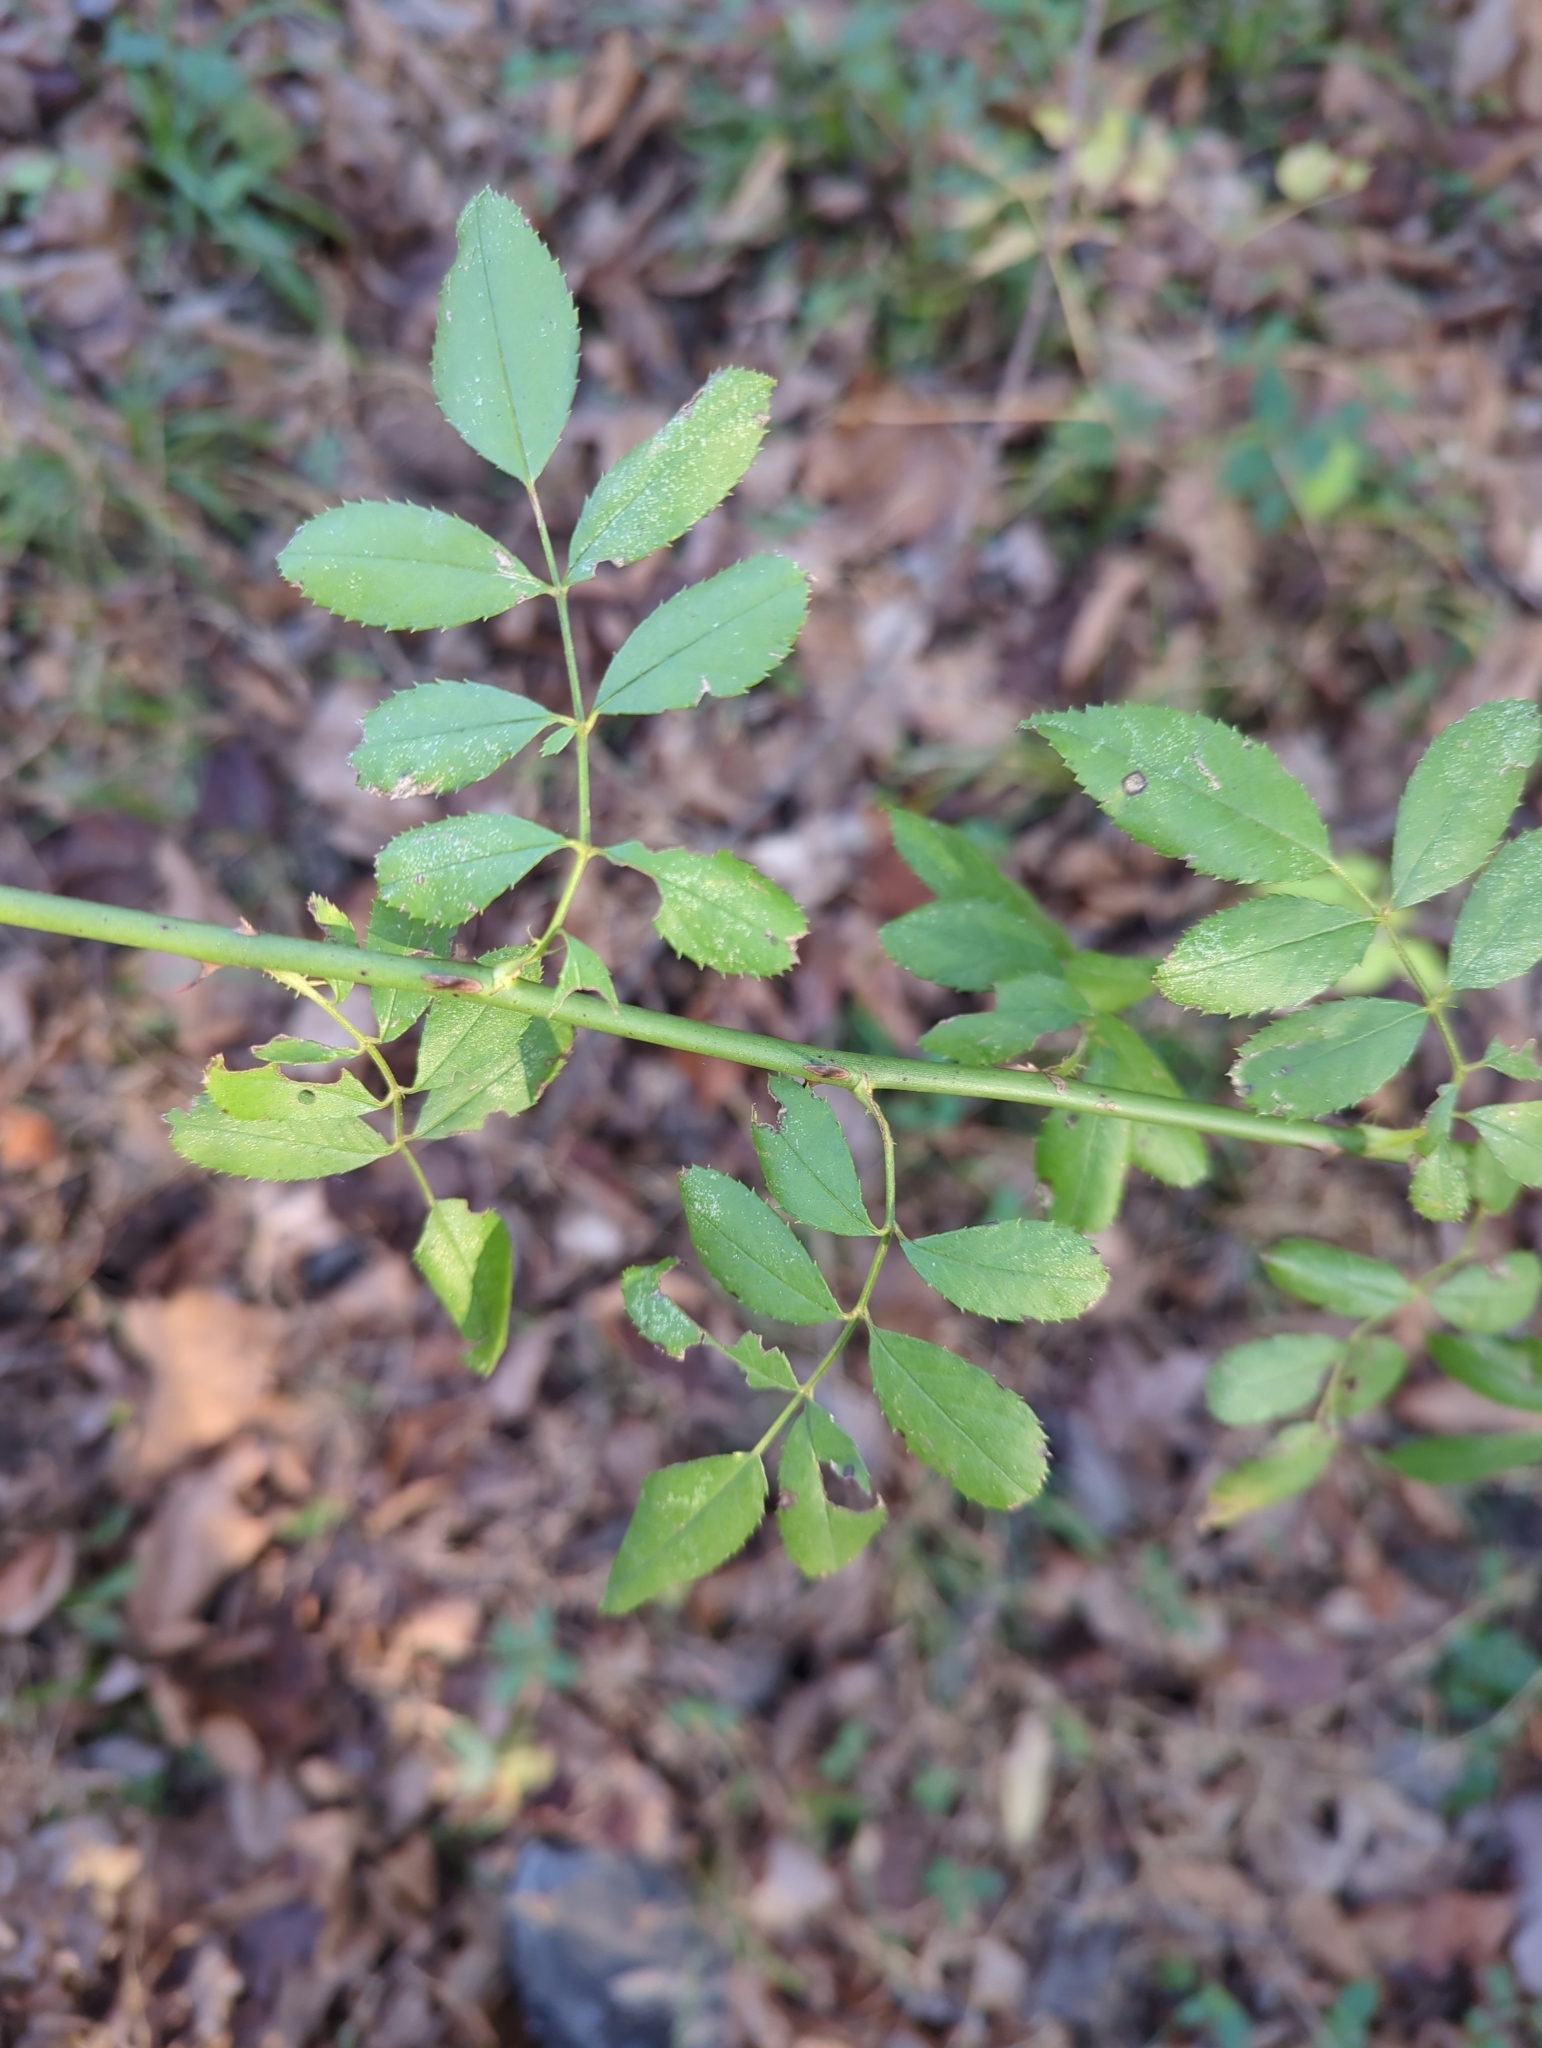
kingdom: Plantae
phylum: Tracheophyta
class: Magnoliopsida
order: Rosales
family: Rosaceae
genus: Rosa
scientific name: Rosa multiflora
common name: Multiflora rose
